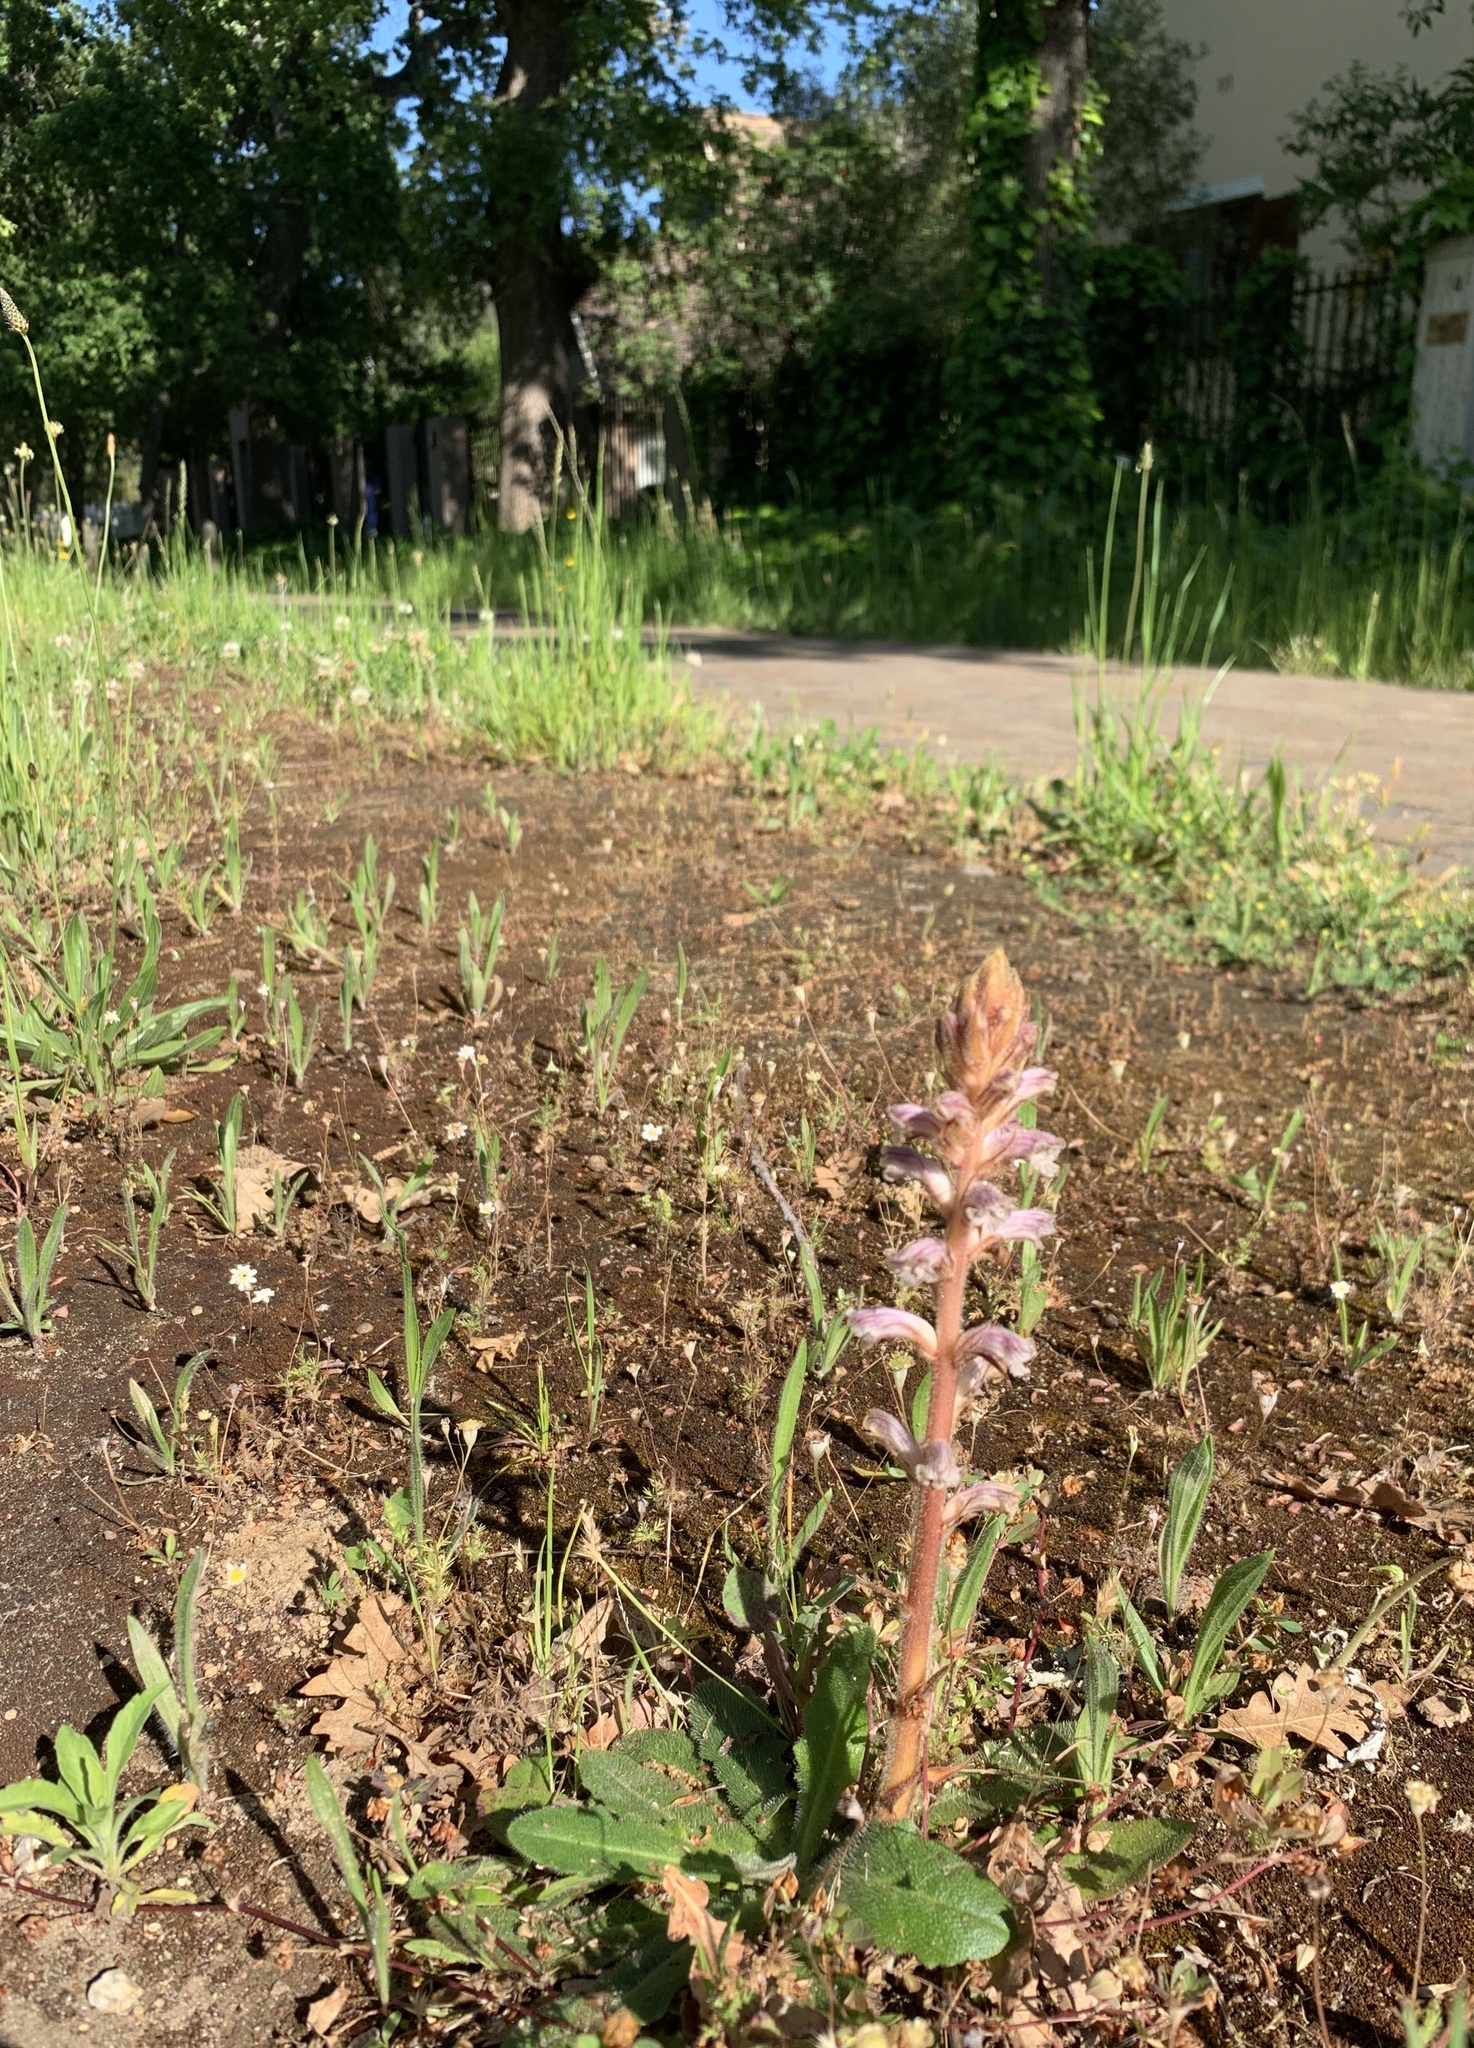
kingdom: Plantae
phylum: Tracheophyta
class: Magnoliopsida
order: Lamiales
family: Orobanchaceae
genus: Orobanche
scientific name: Orobanche minor
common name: Common broomrape
